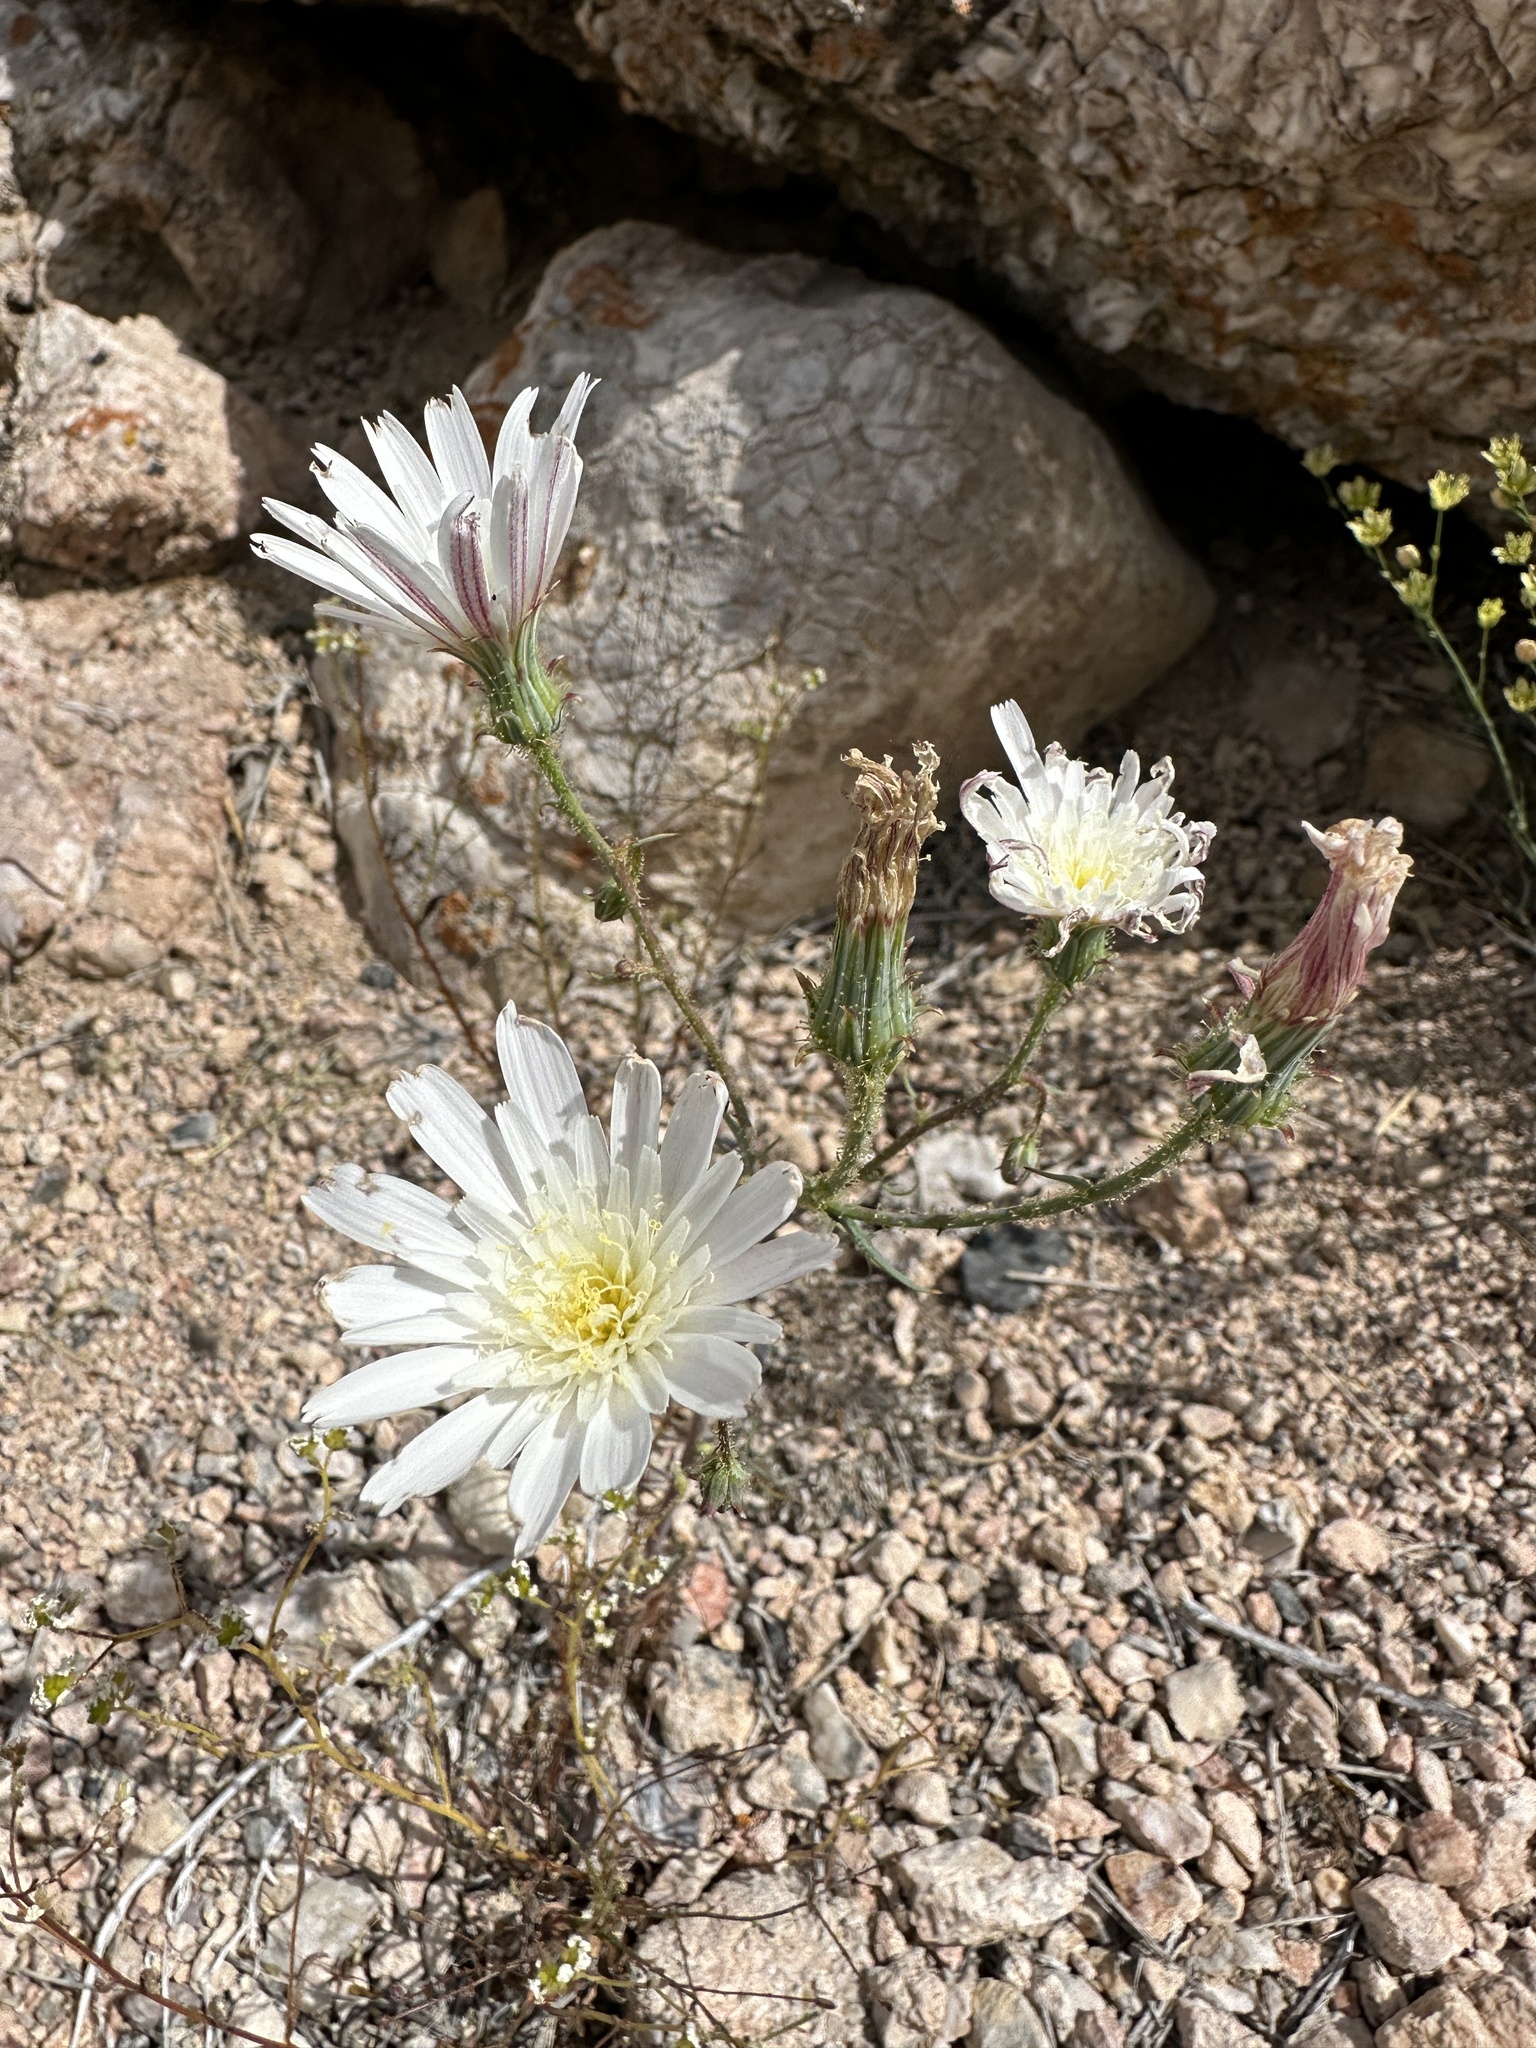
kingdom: Plantae
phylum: Tracheophyta
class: Magnoliopsida
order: Asterales
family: Asteraceae
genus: Calycoseris
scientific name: Calycoseris wrightii
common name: White tackstem
